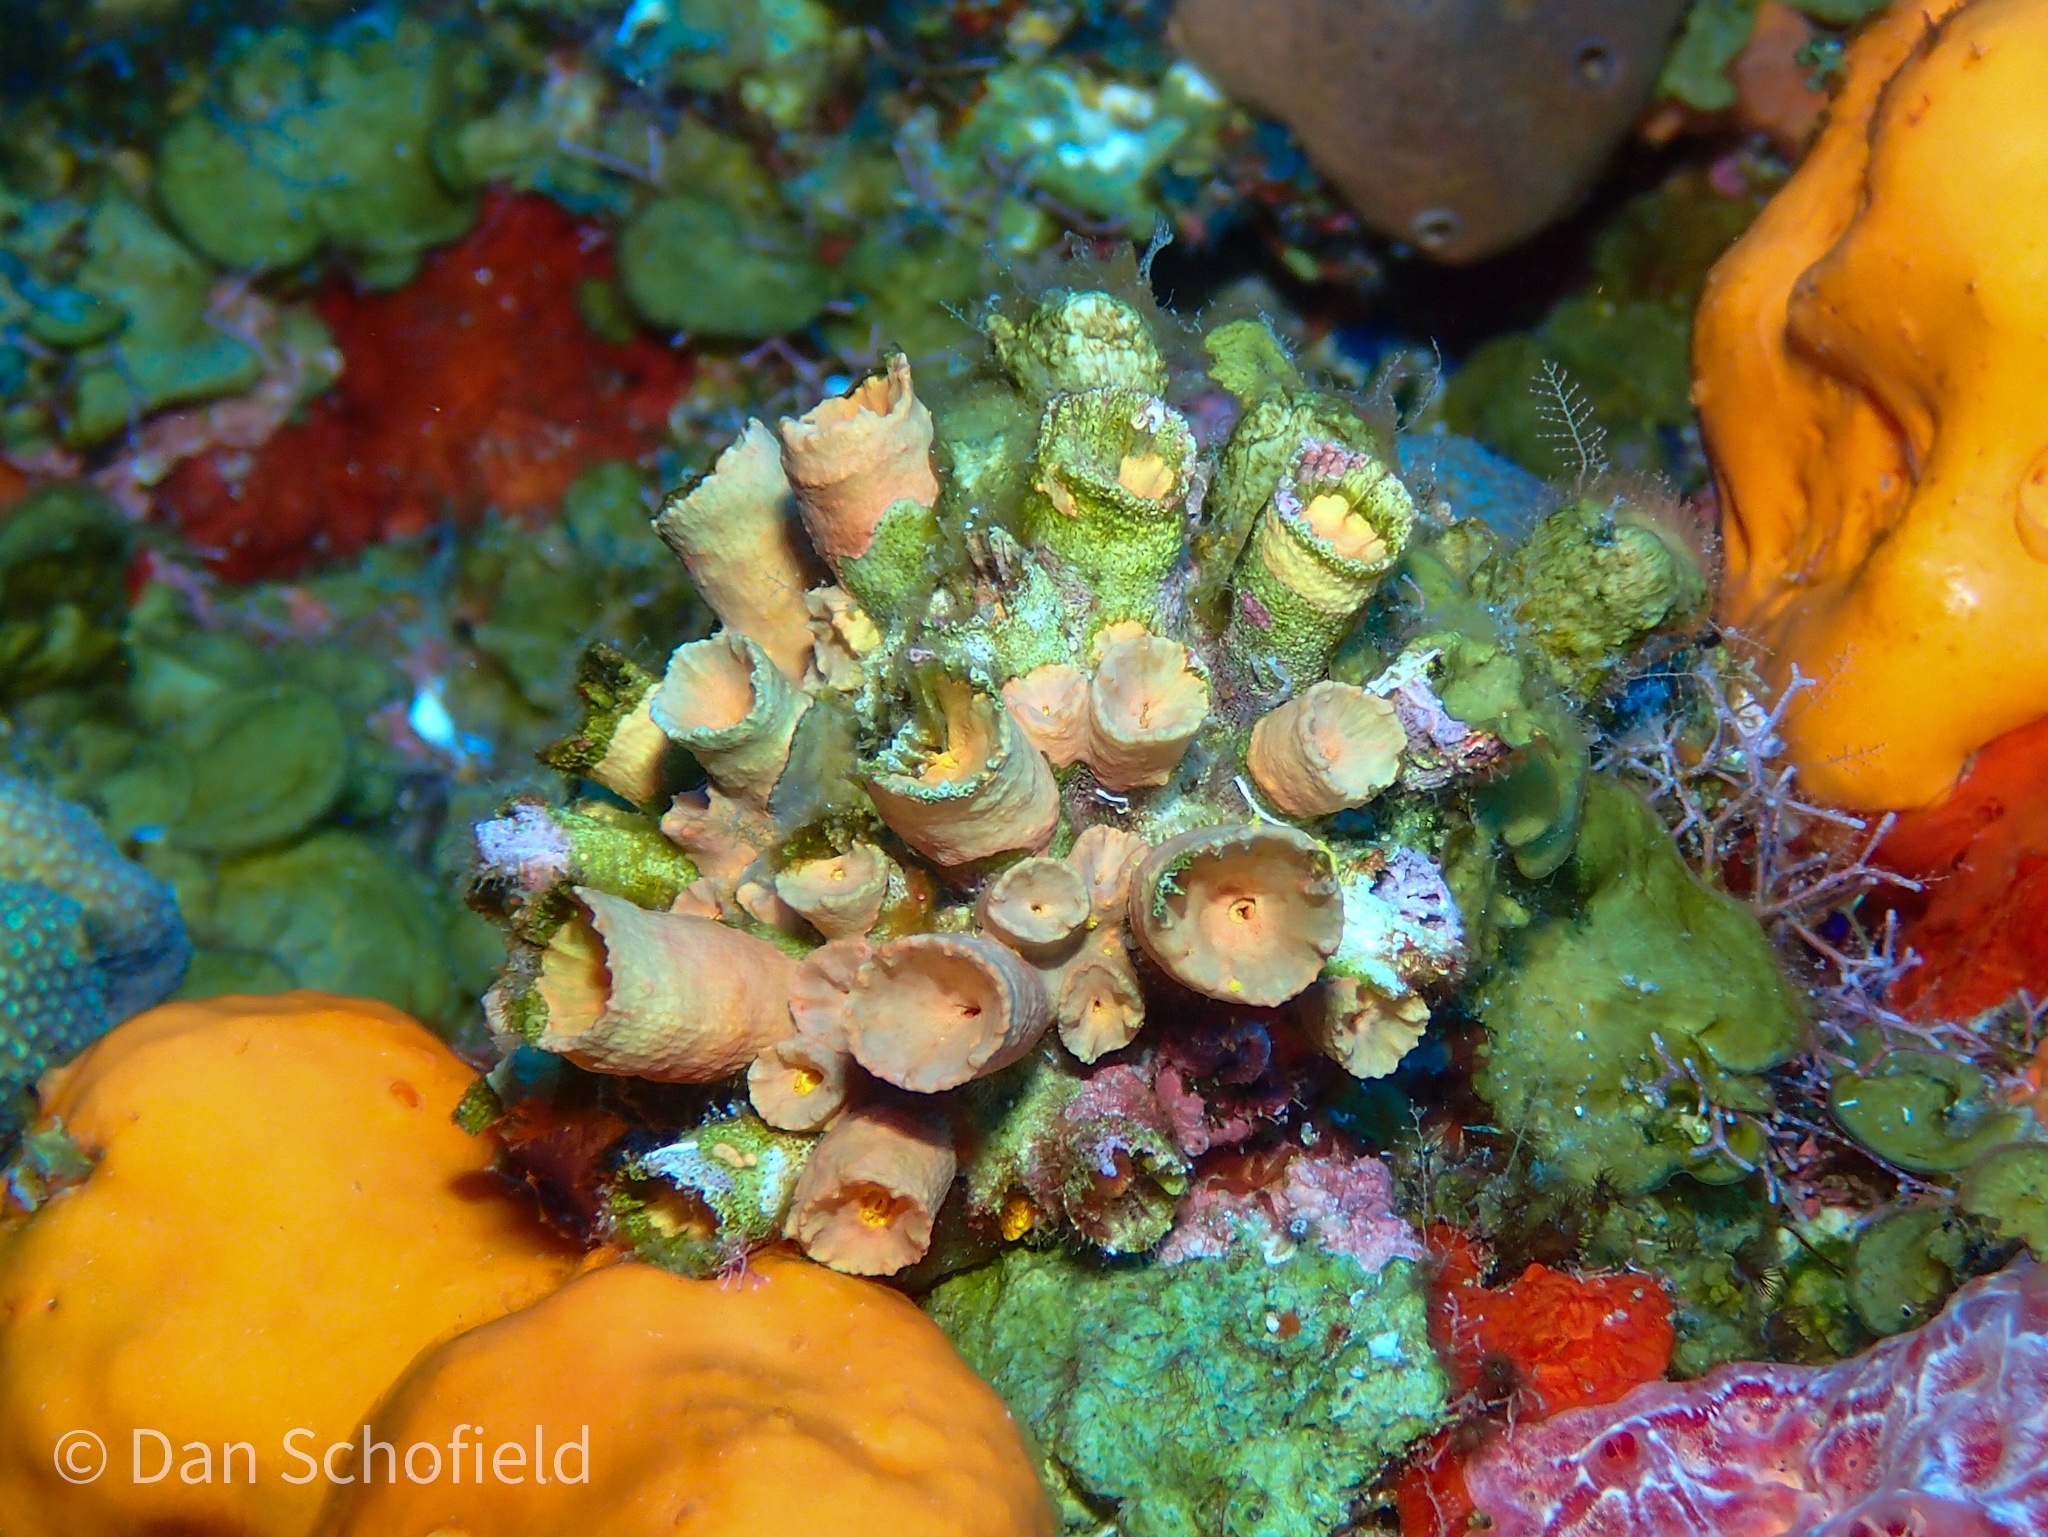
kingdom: Animalia
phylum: Cnidaria
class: Anthozoa
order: Scleractinia
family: Dendrophylliidae
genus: Tubastraea
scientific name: Tubastraea tagusensis
